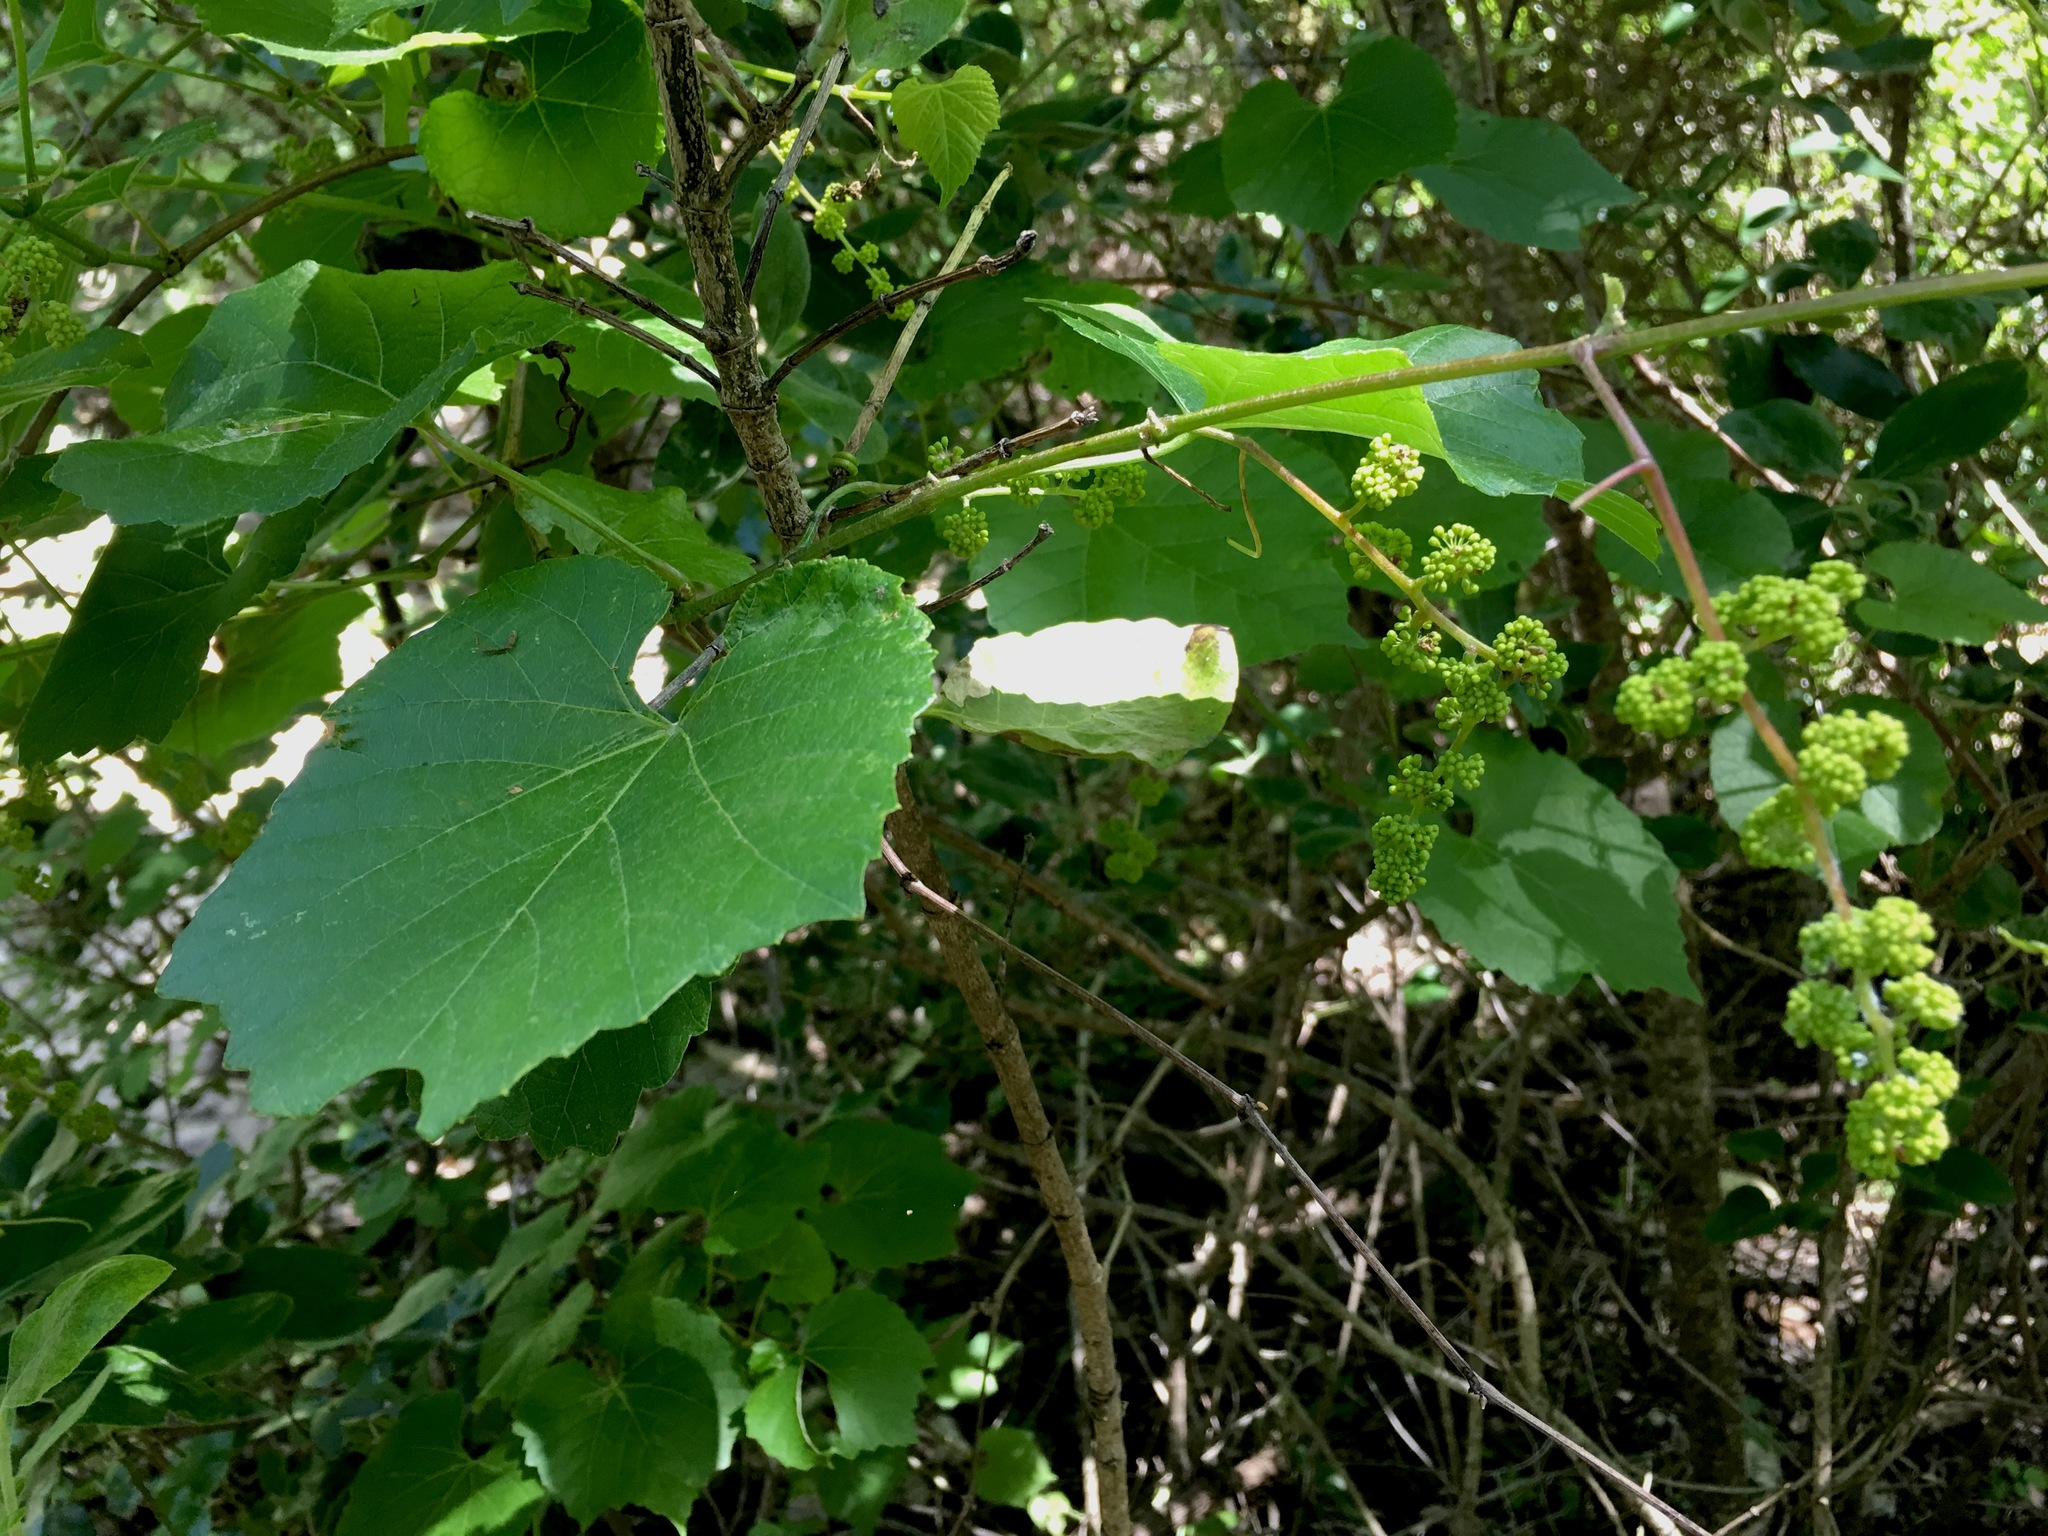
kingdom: Plantae
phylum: Tracheophyta
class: Magnoliopsida
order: Vitales
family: Vitaceae
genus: Vitis
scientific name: Vitis cinerea
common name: Ashy grape
